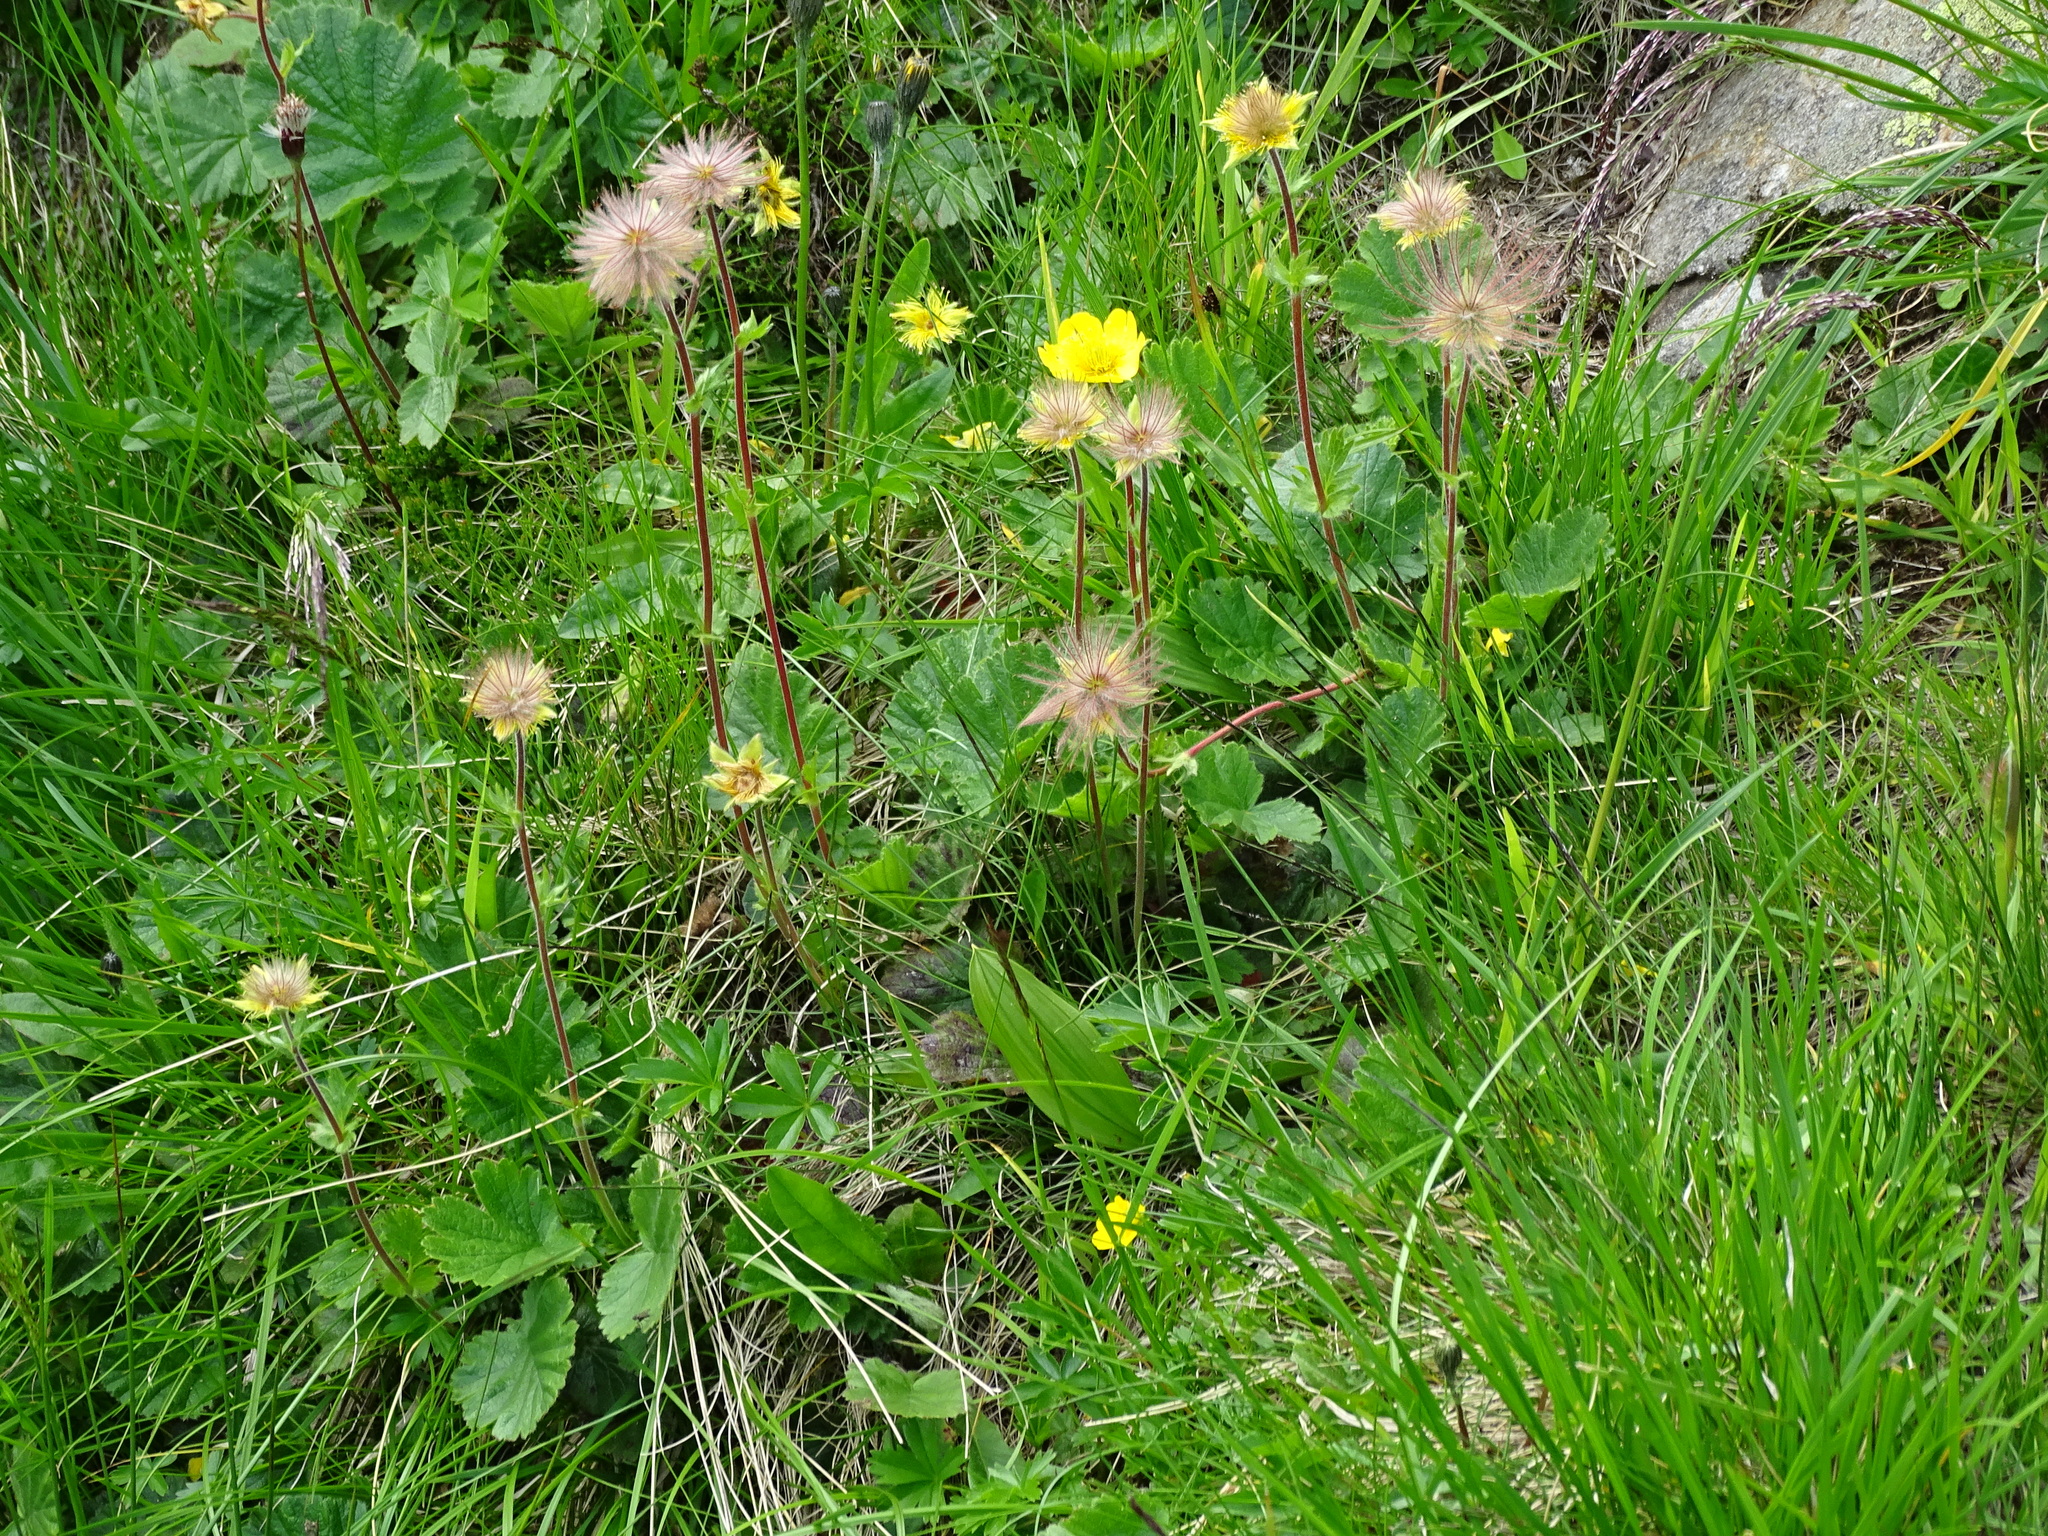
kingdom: Plantae
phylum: Tracheophyta
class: Magnoliopsida
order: Rosales
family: Rosaceae
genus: Geum
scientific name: Geum montanum
